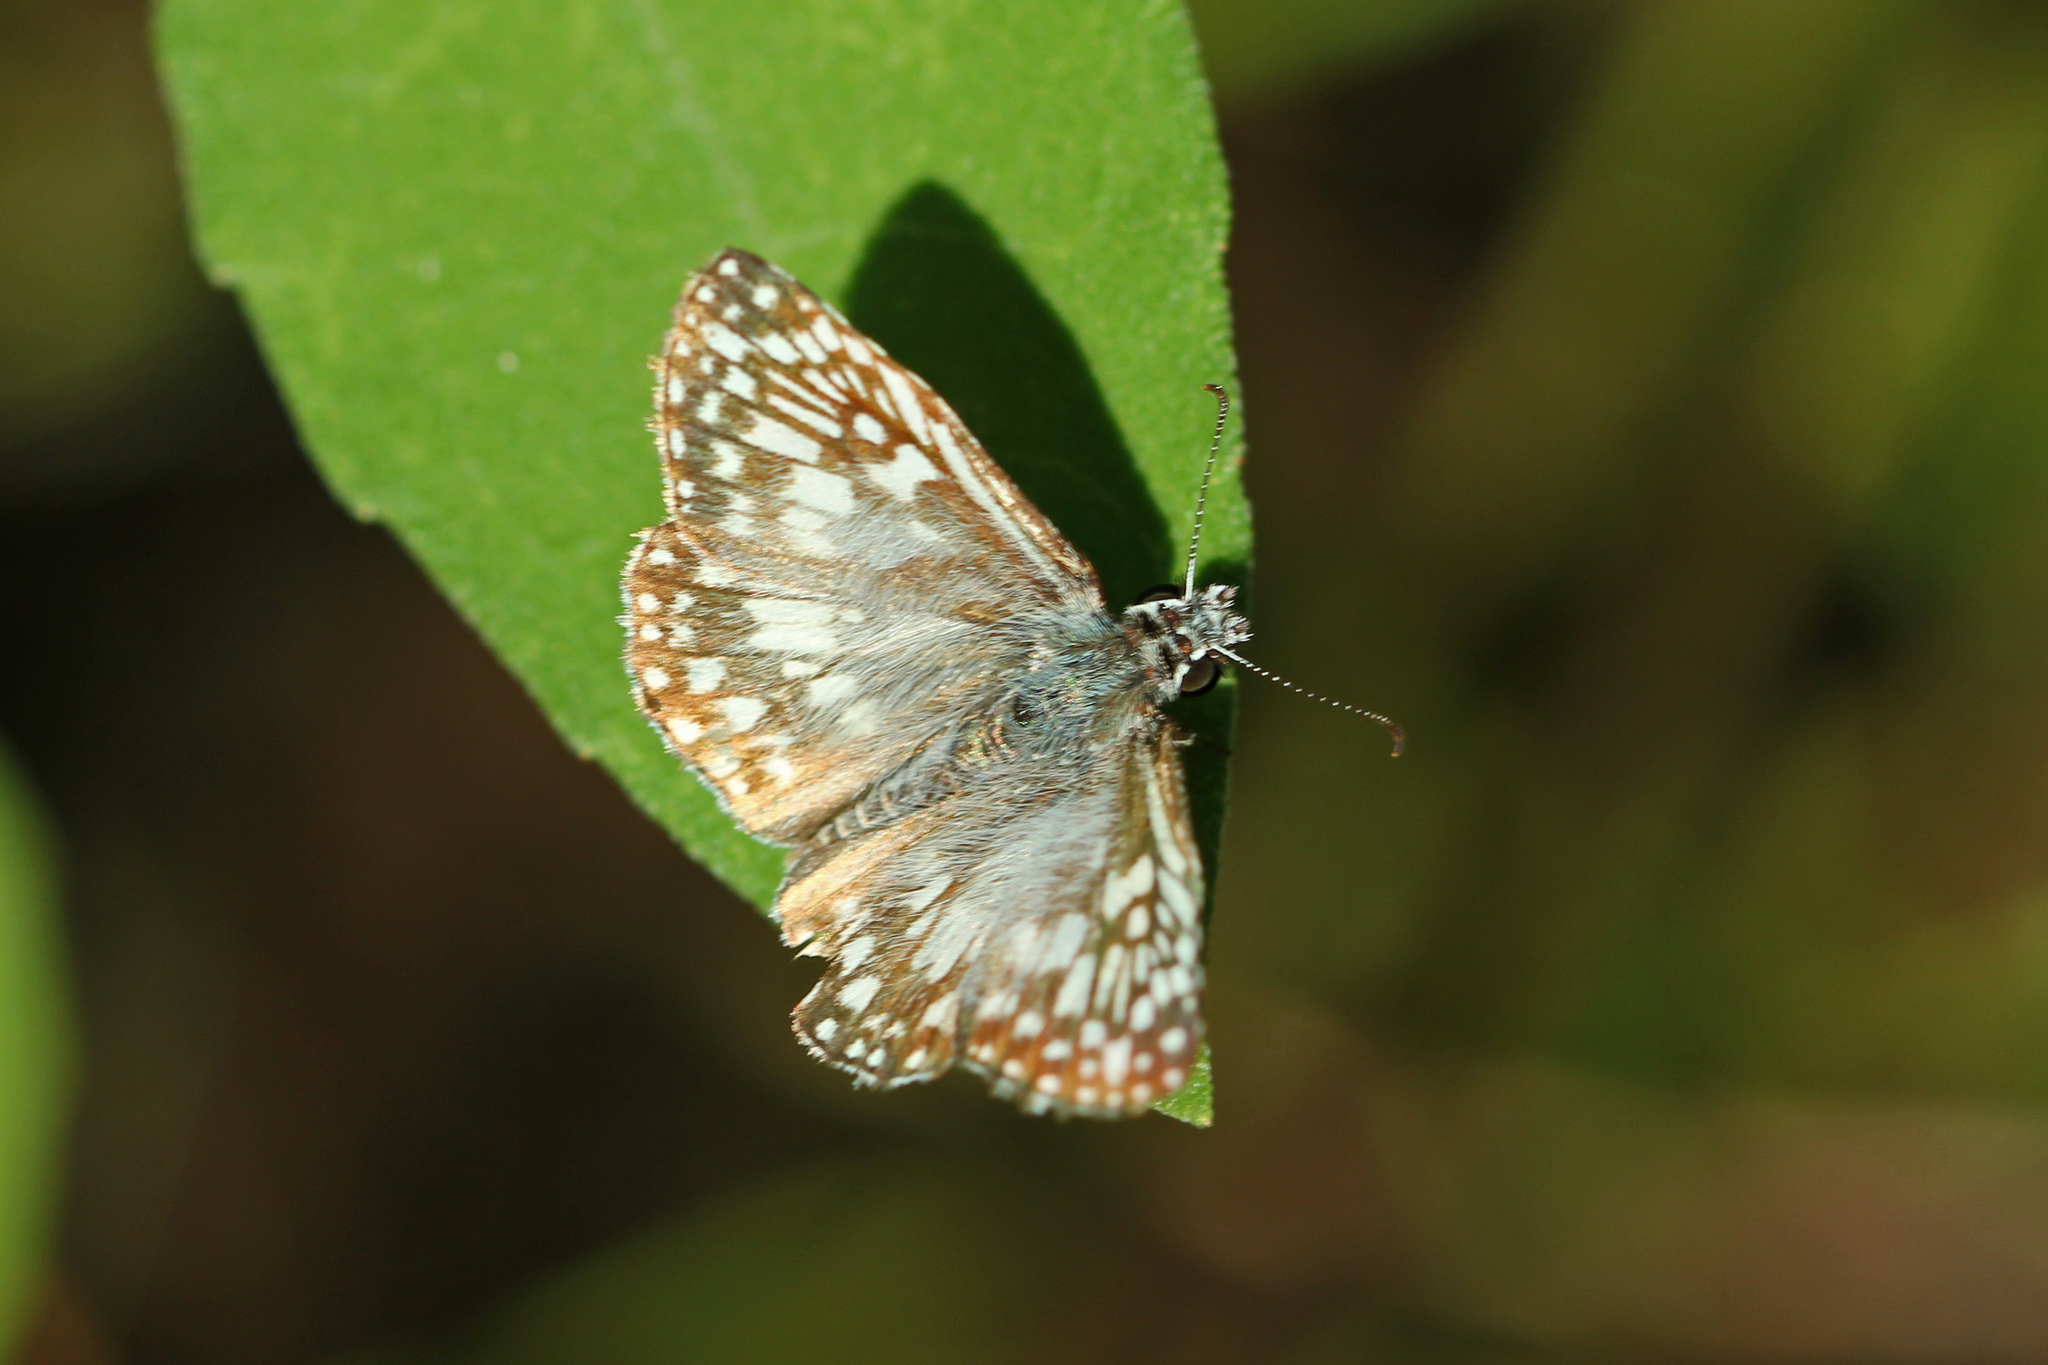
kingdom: Animalia
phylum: Arthropoda
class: Insecta
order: Lepidoptera
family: Hesperiidae
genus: Pyrgus
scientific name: Pyrgus oileus
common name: Tropical checkered-skipper
